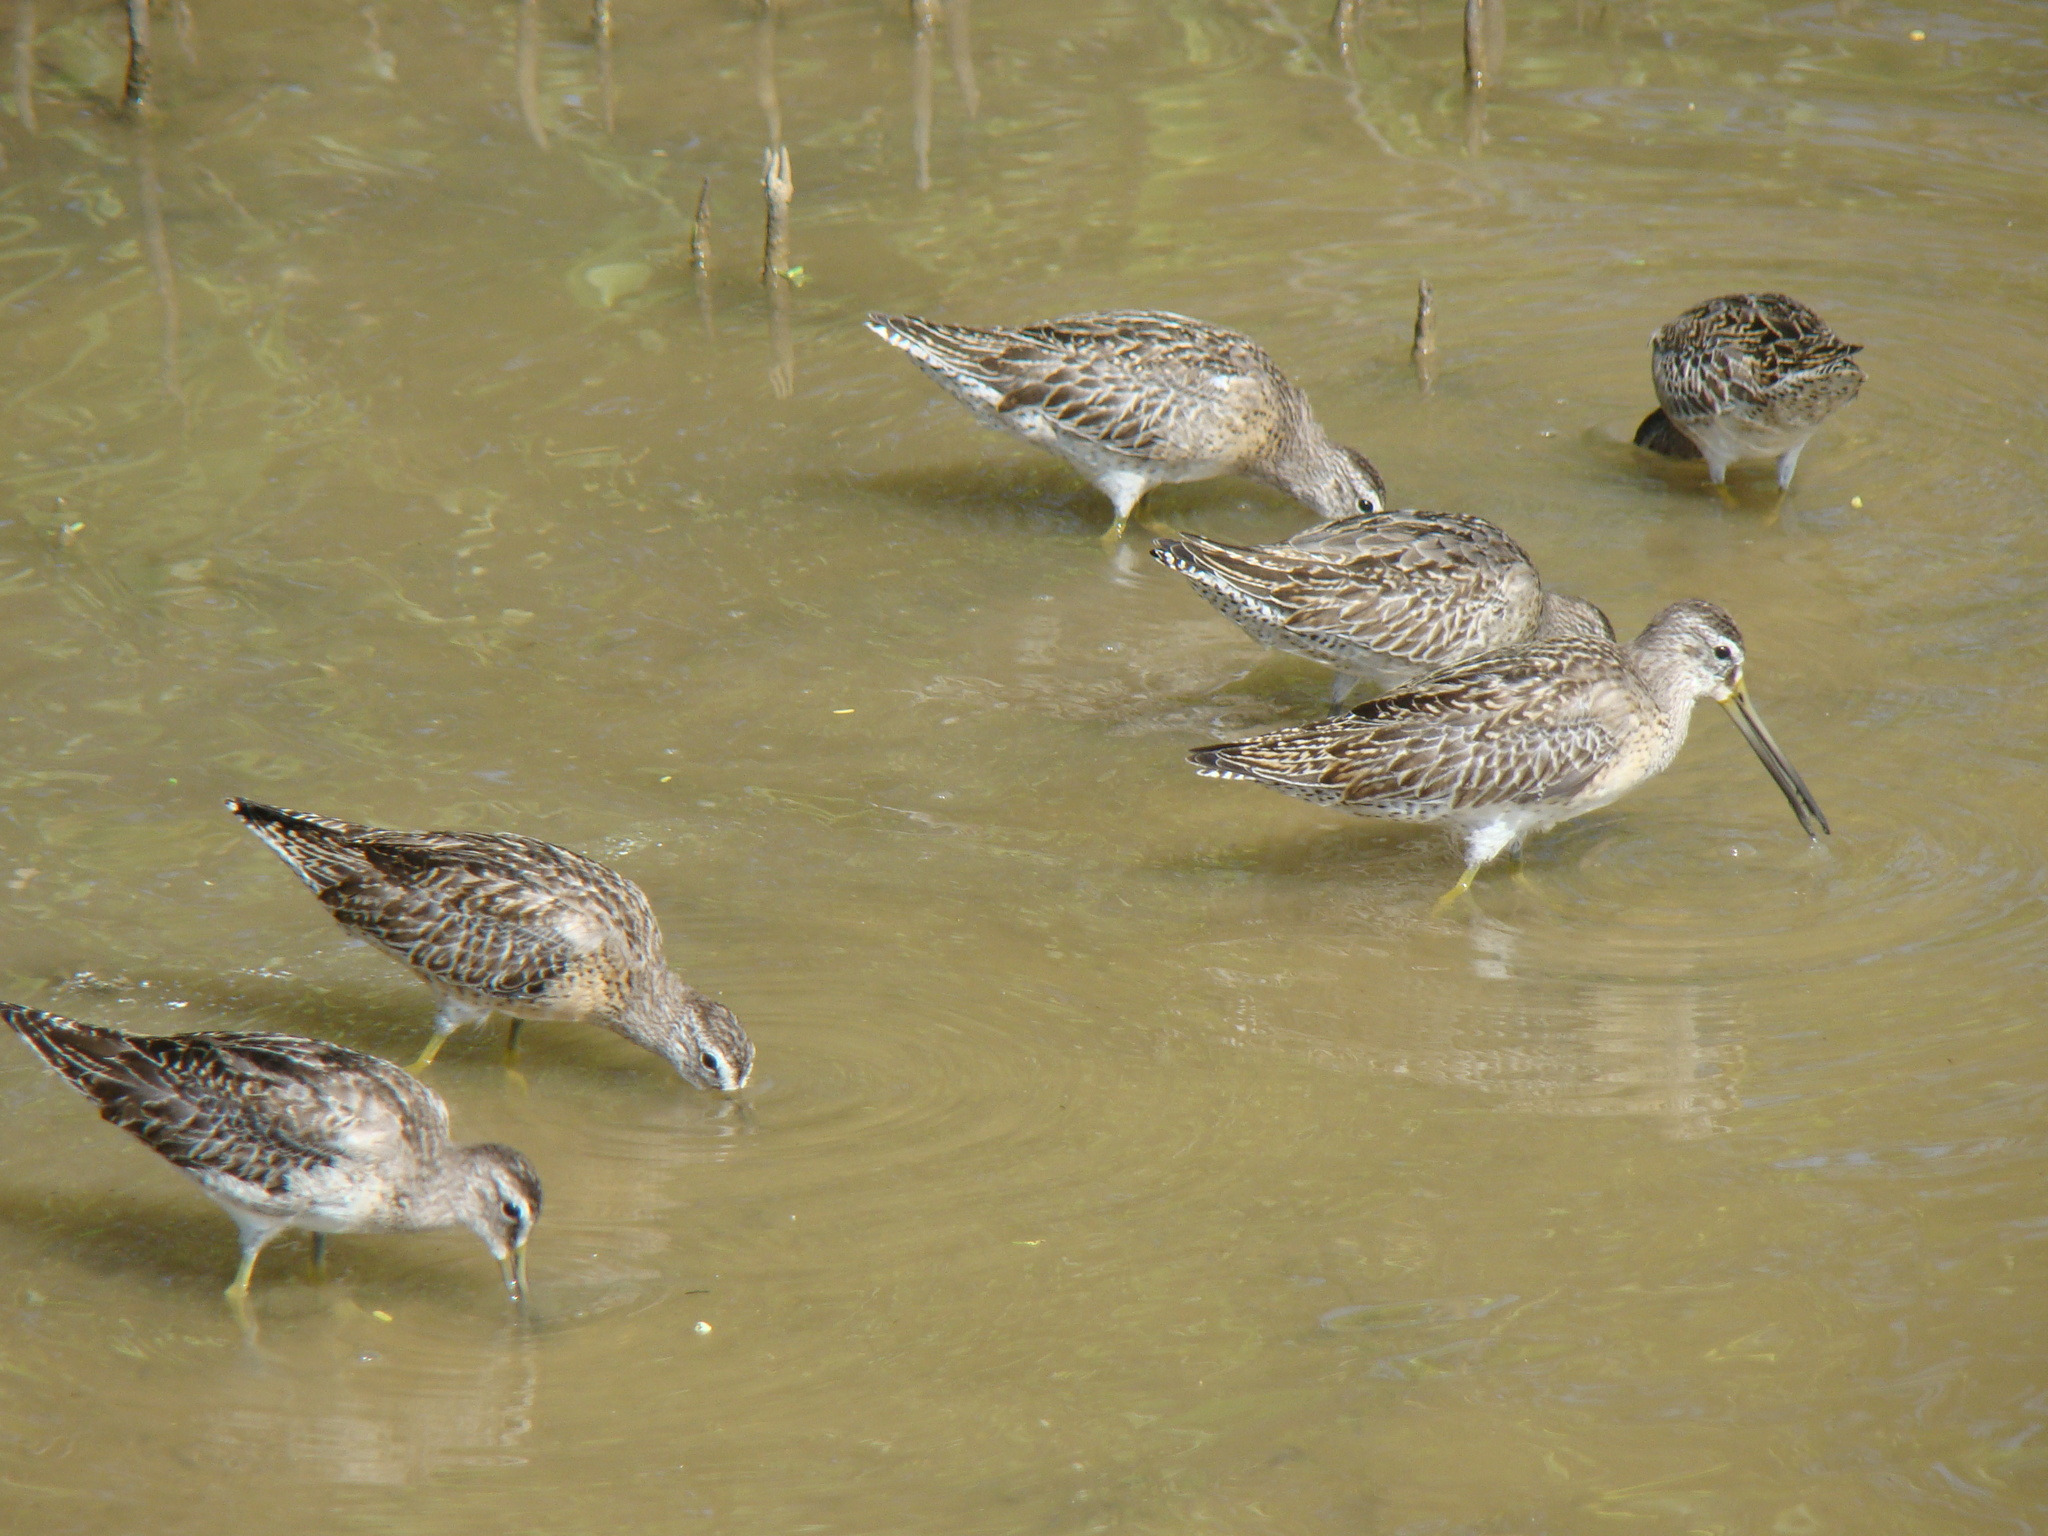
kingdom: Animalia
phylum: Chordata
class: Aves
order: Charadriiformes
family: Scolopacidae
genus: Limnodromus
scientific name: Limnodromus griseus
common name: Short-billed dowitcher
